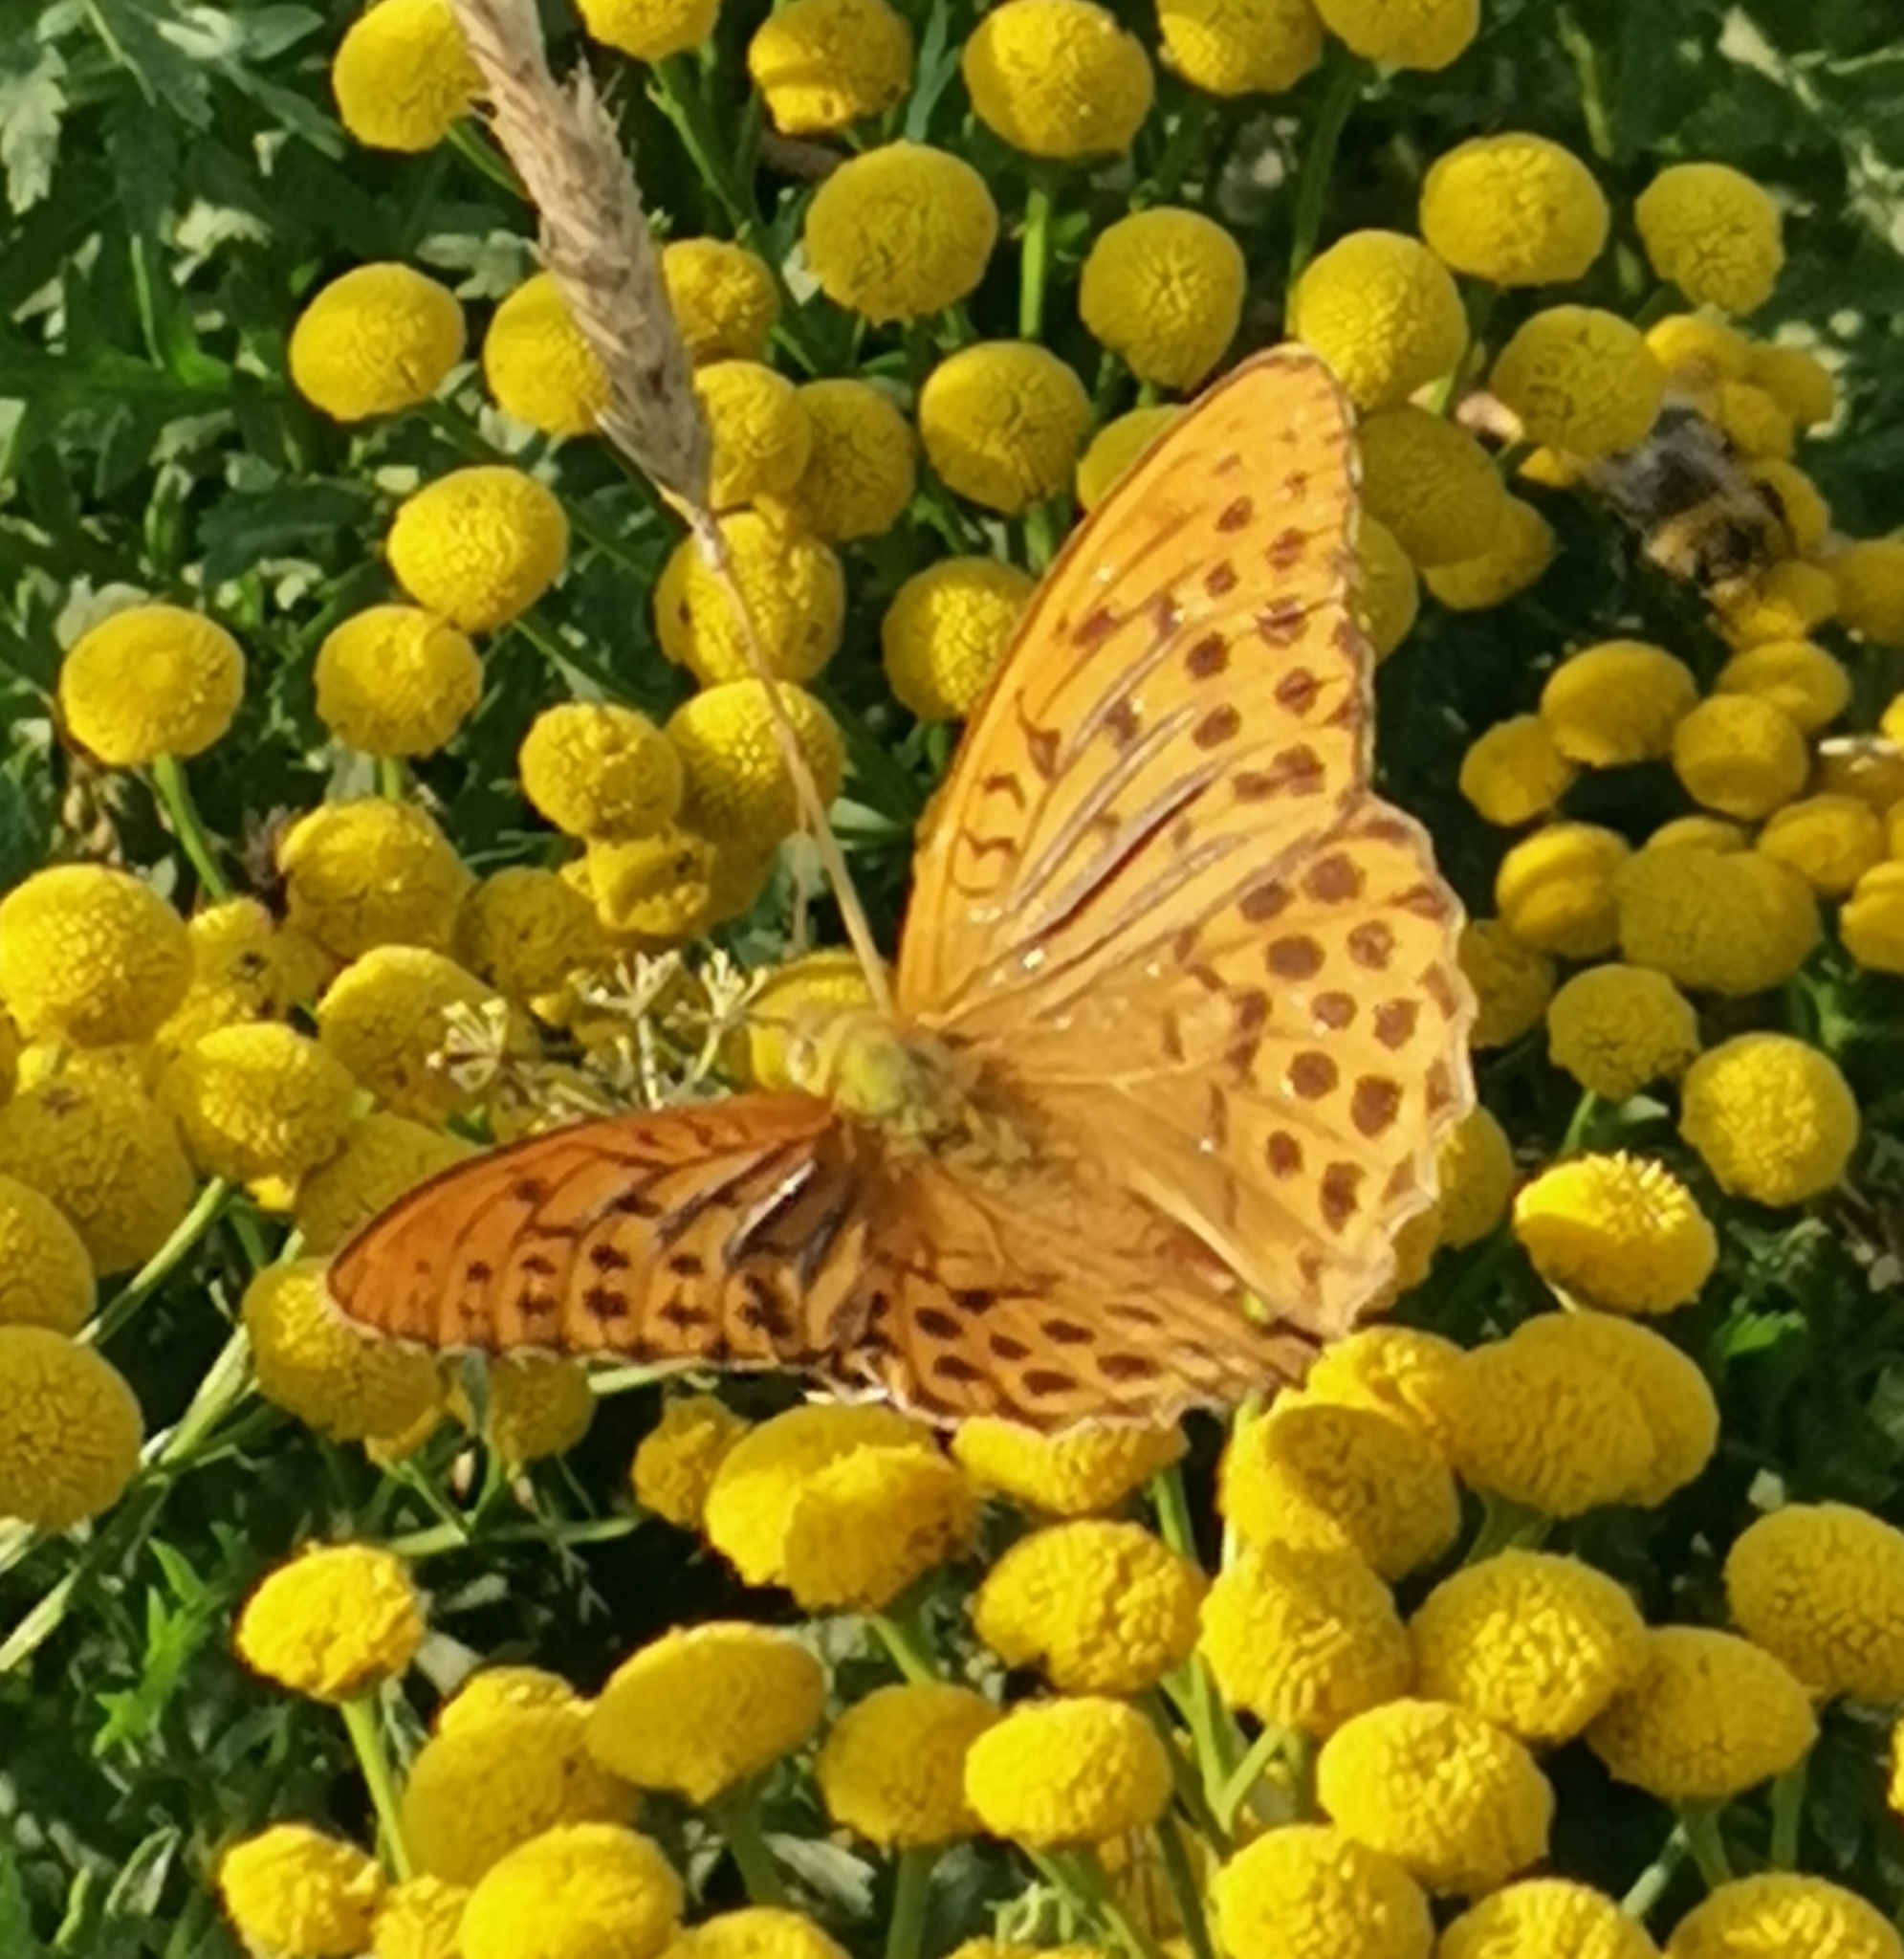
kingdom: Animalia
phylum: Arthropoda
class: Insecta
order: Lepidoptera
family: Nymphalidae
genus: Argynnis
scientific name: Argynnis paphia
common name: Silver-washed fritillary
